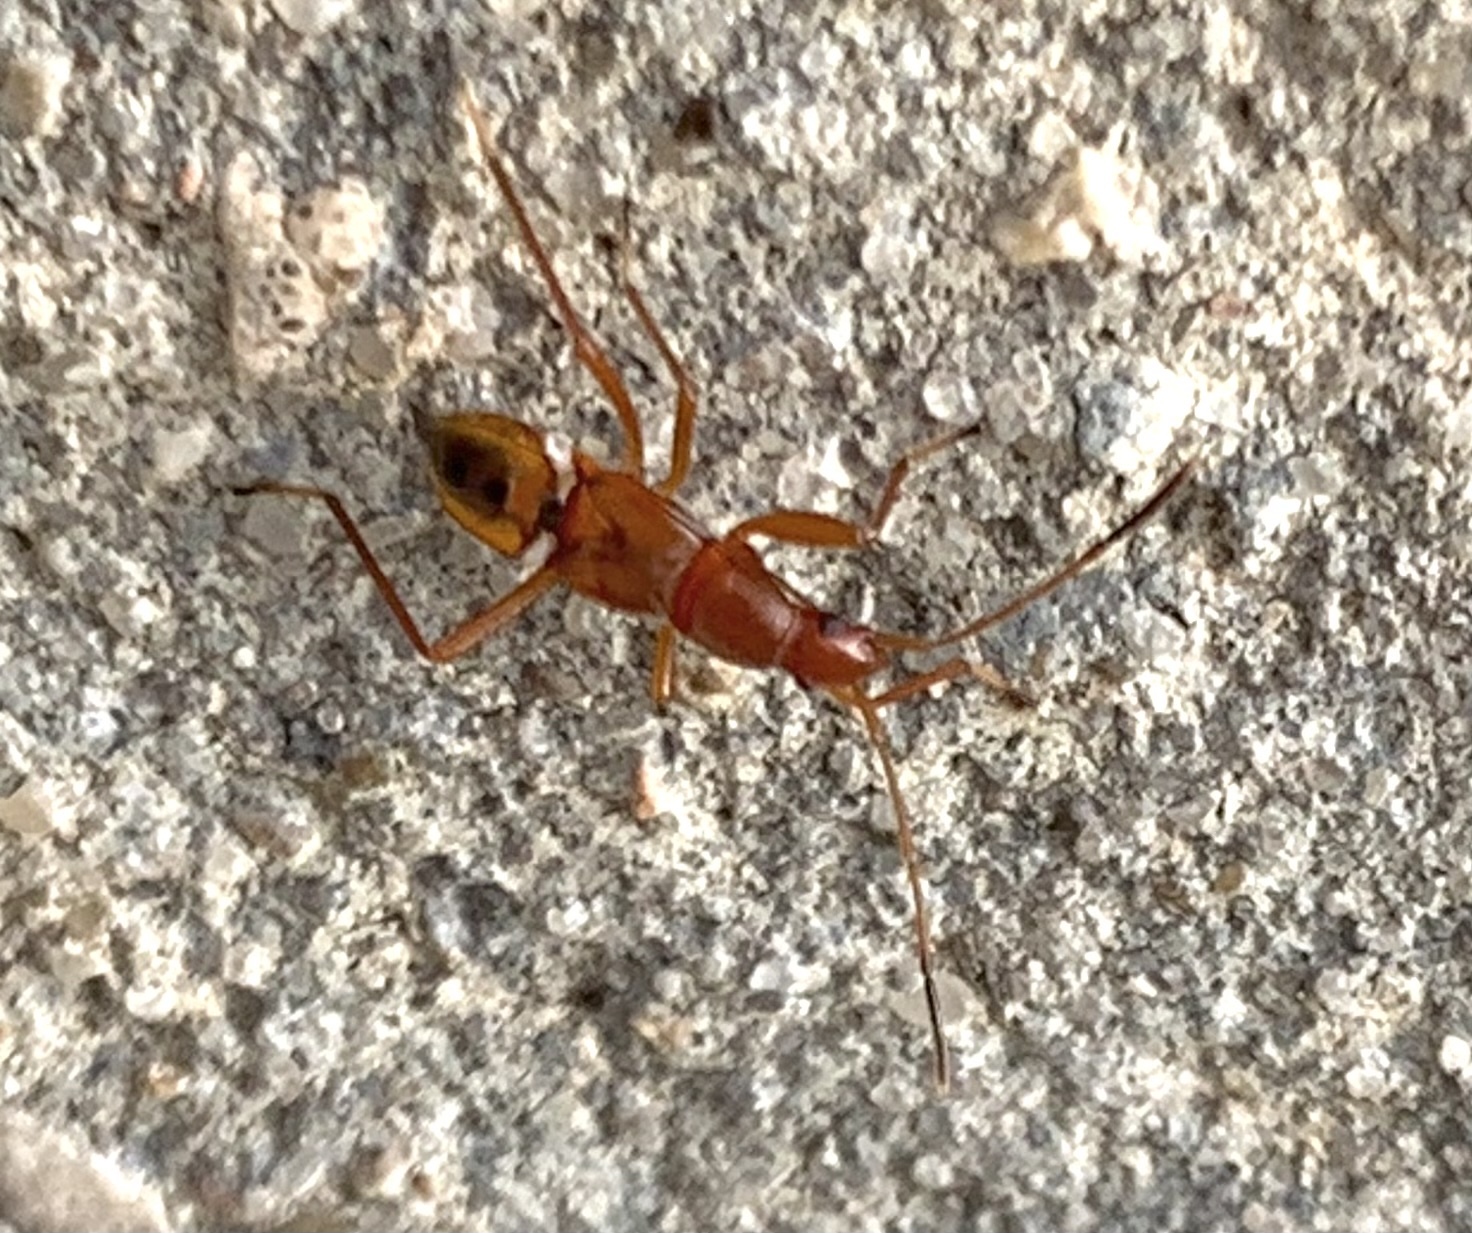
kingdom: Animalia
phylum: Arthropoda
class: Insecta
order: Hemiptera
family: Rhyparochromidae
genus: Cnemodus
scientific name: Cnemodus mavortius
